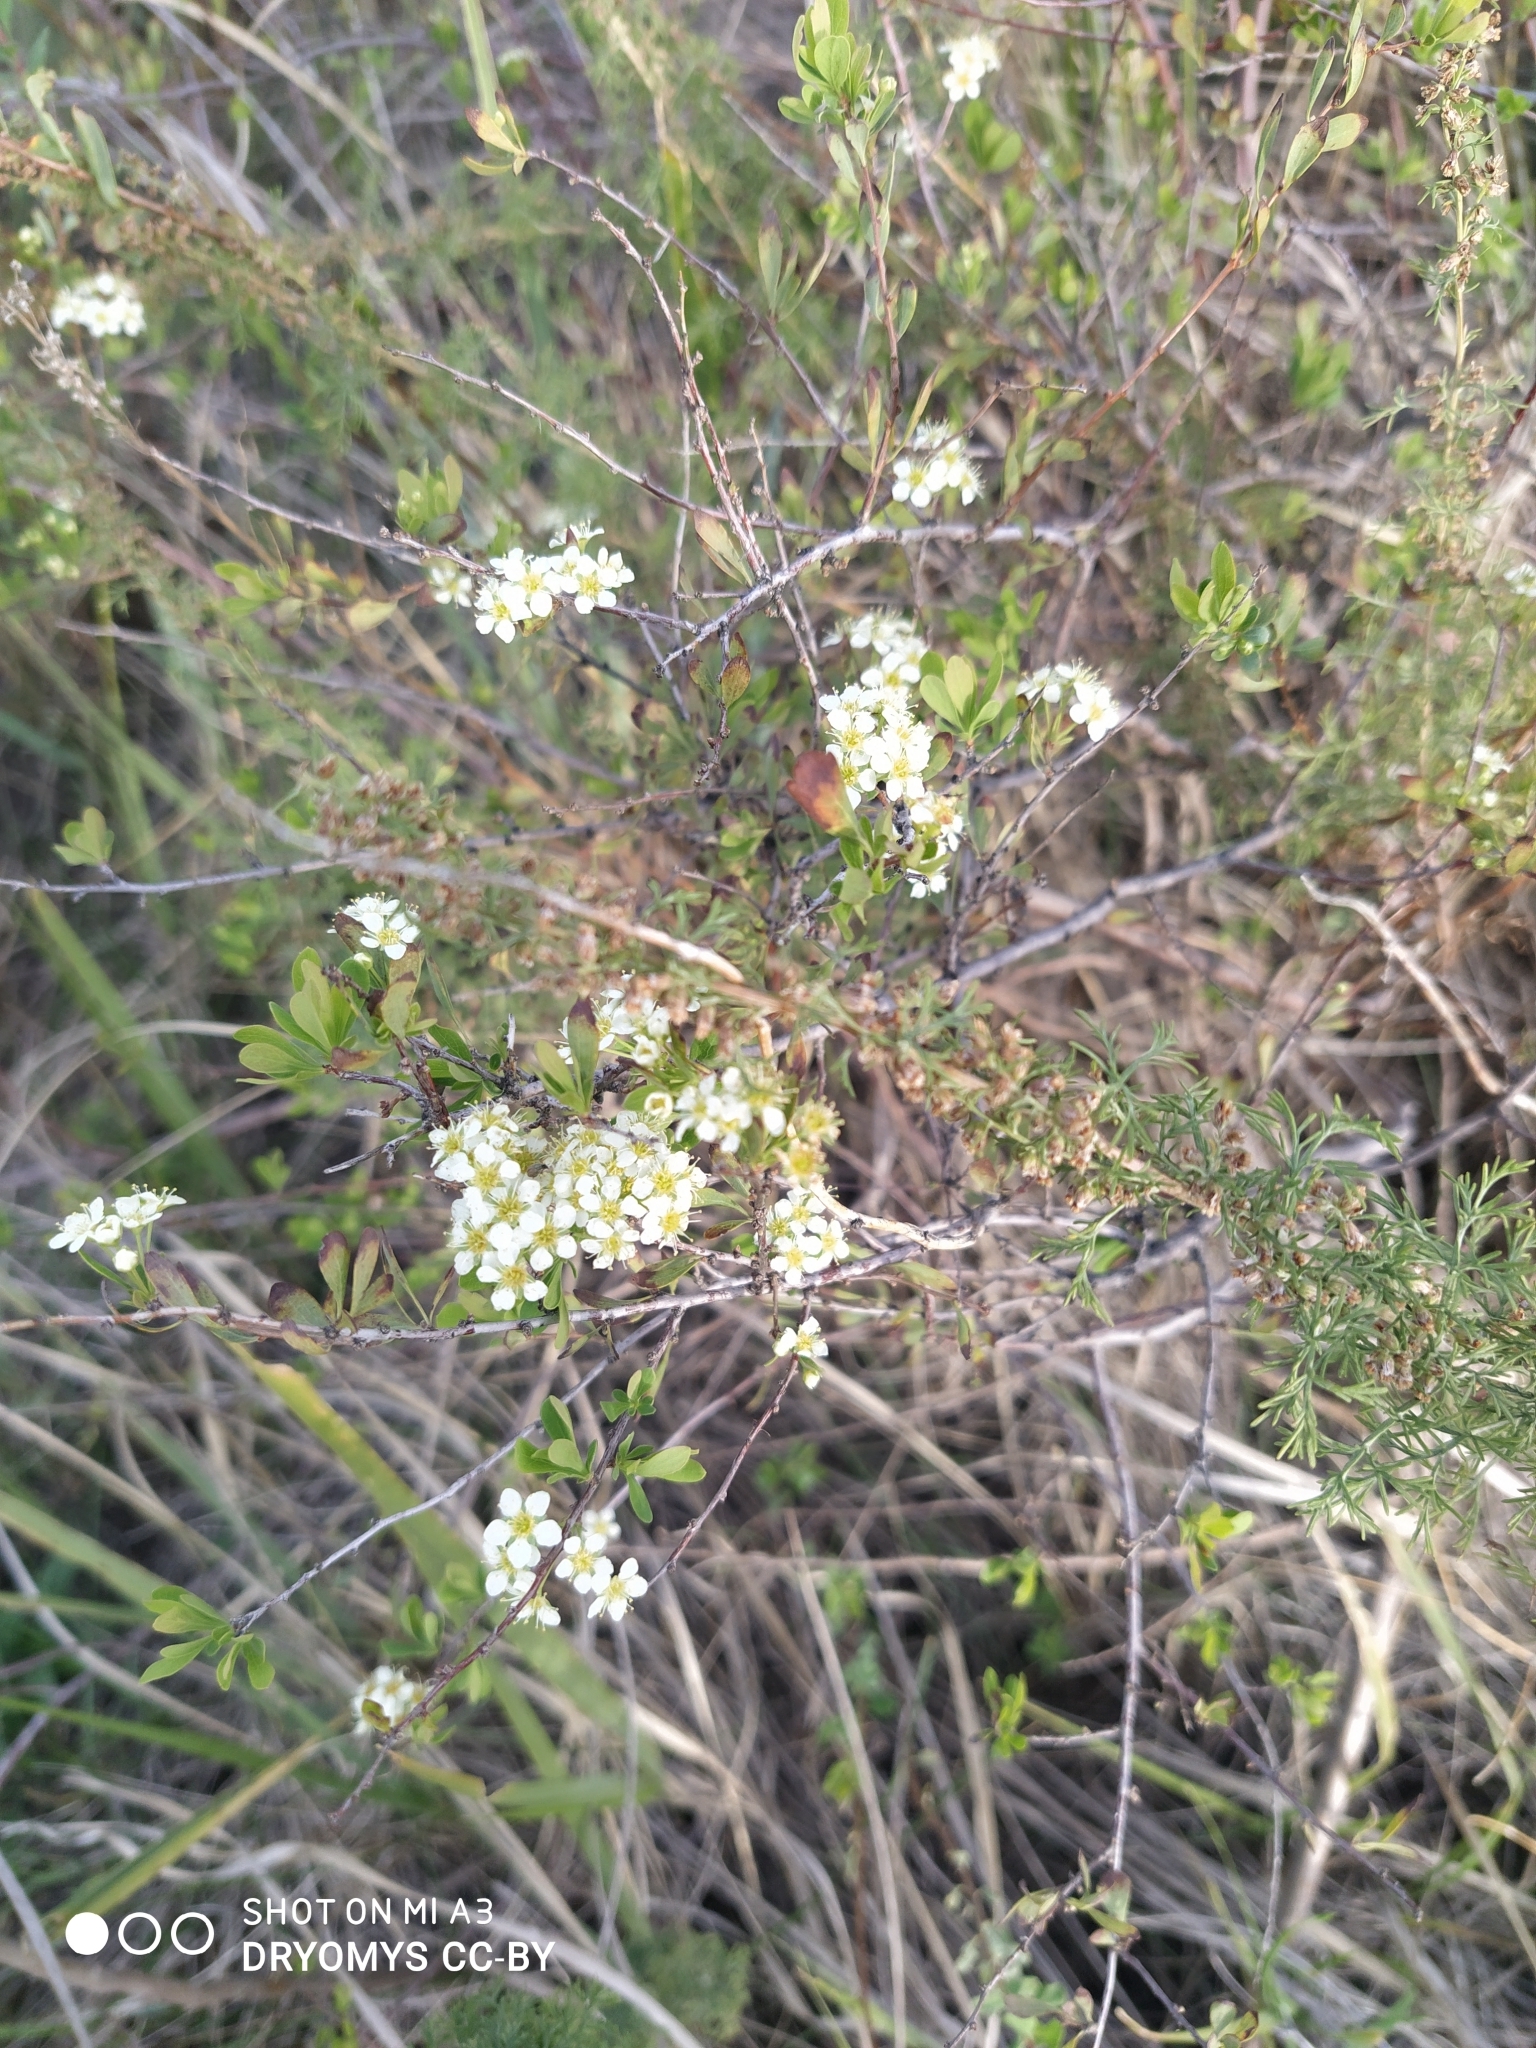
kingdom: Plantae
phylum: Tracheophyta
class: Magnoliopsida
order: Rosales
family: Rosaceae
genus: Spiraea
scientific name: Spiraea hypericifolia
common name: Iberian spirea
